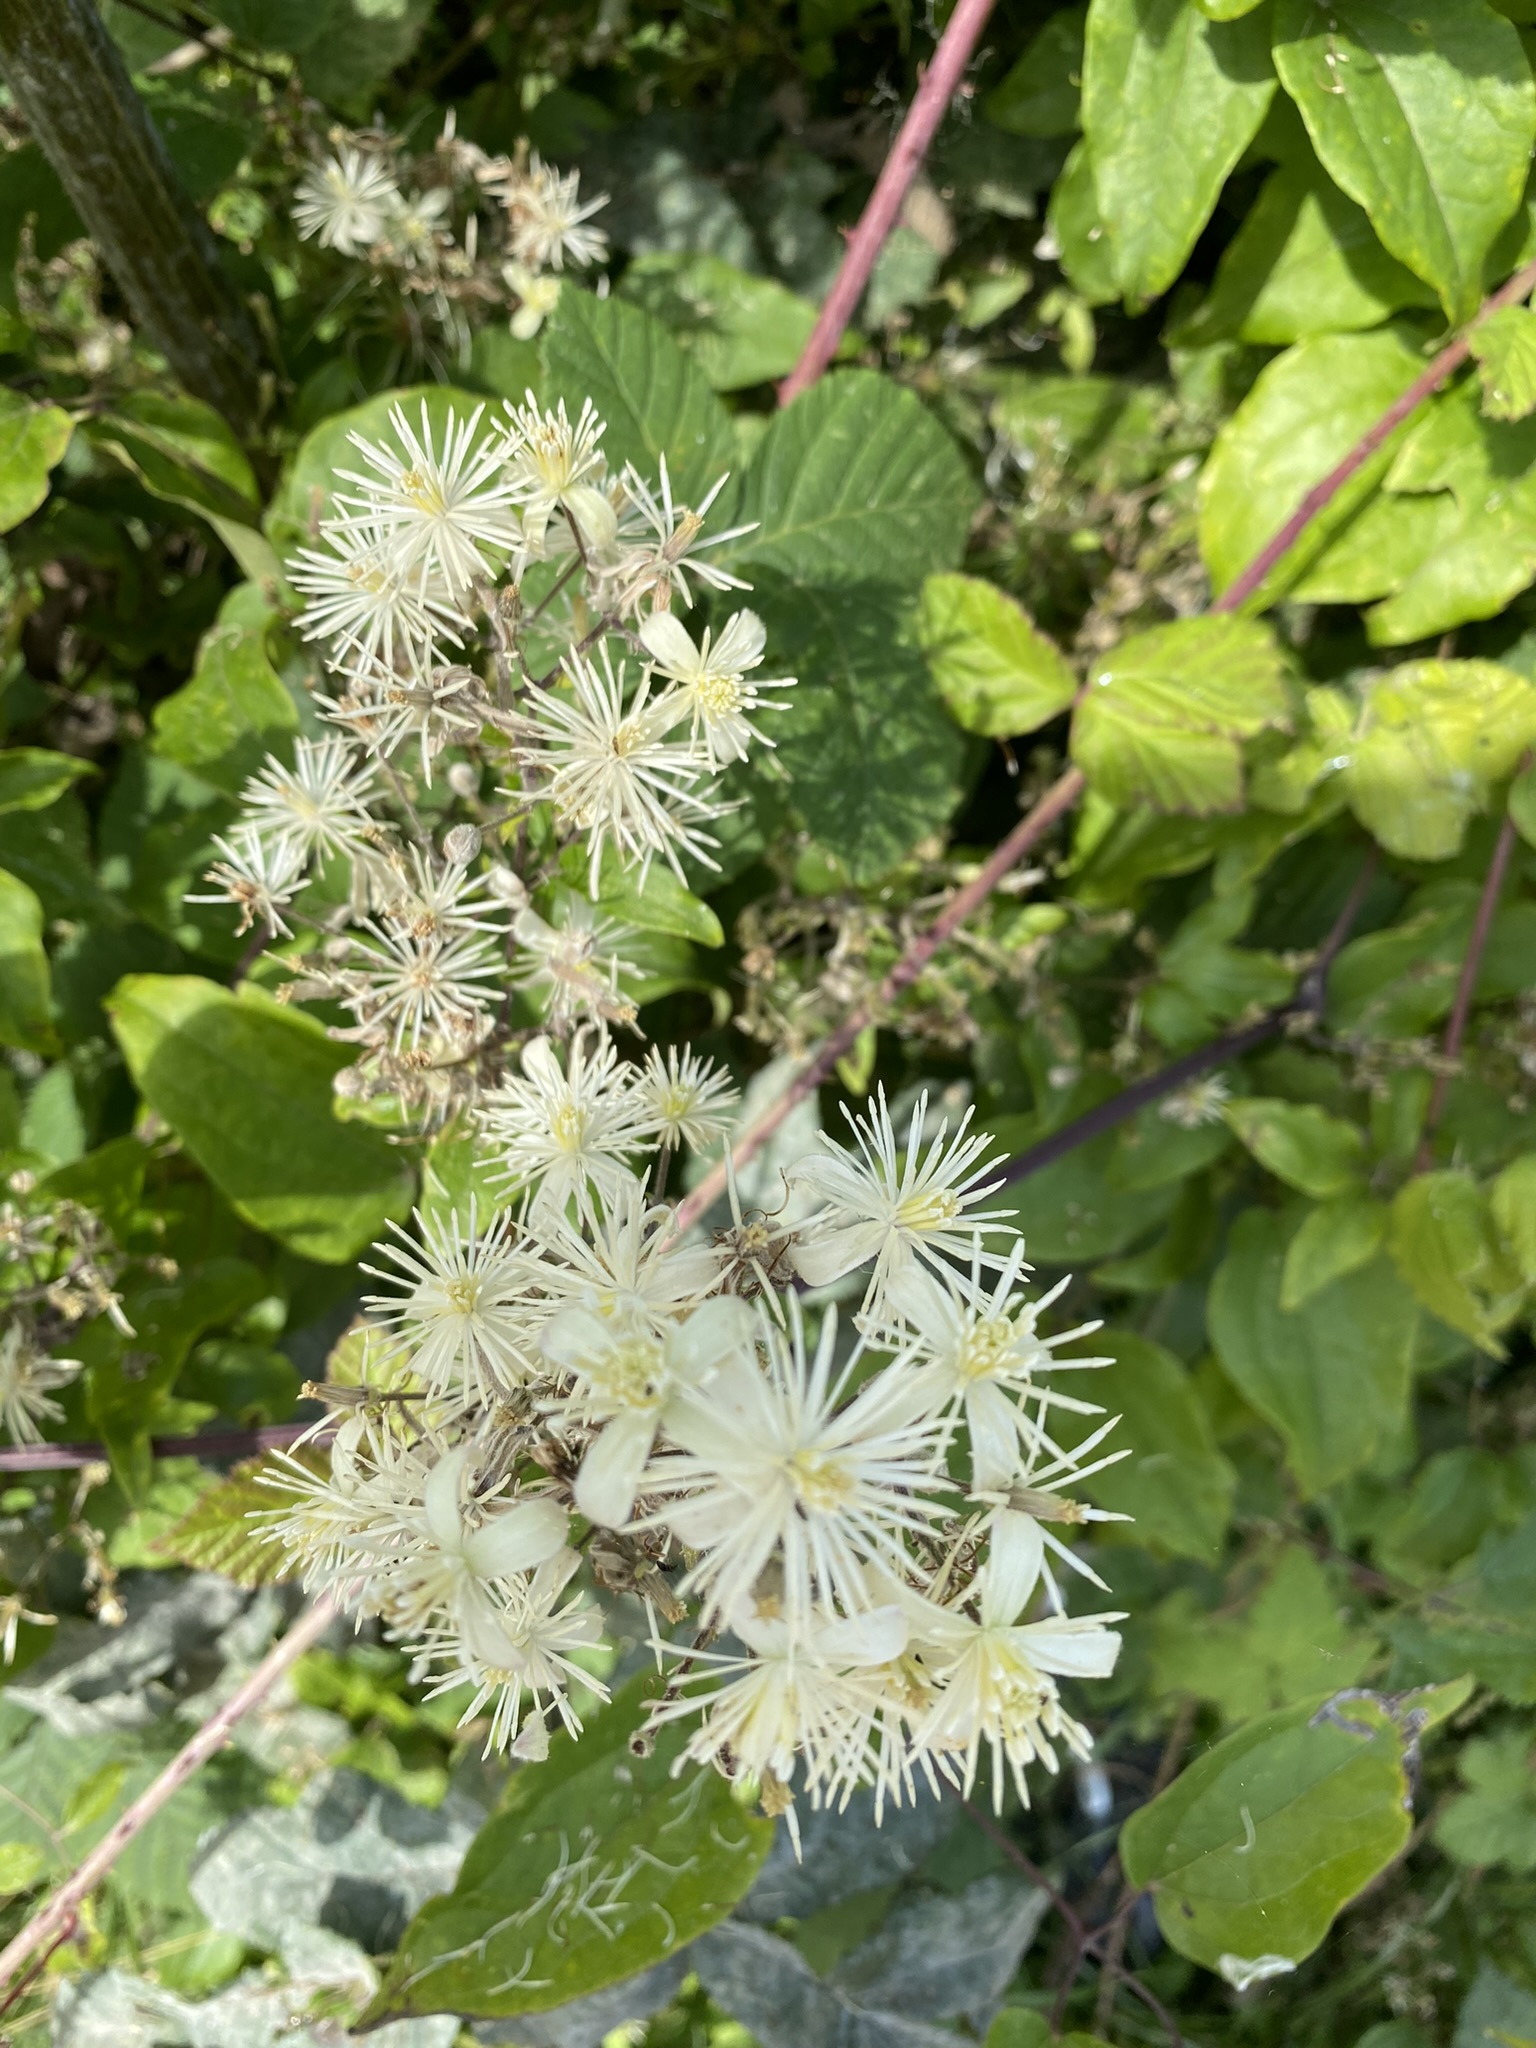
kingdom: Plantae
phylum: Tracheophyta
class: Magnoliopsida
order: Ranunculales
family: Ranunculaceae
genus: Clematis
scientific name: Clematis vitalba
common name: Evergreen clematis
